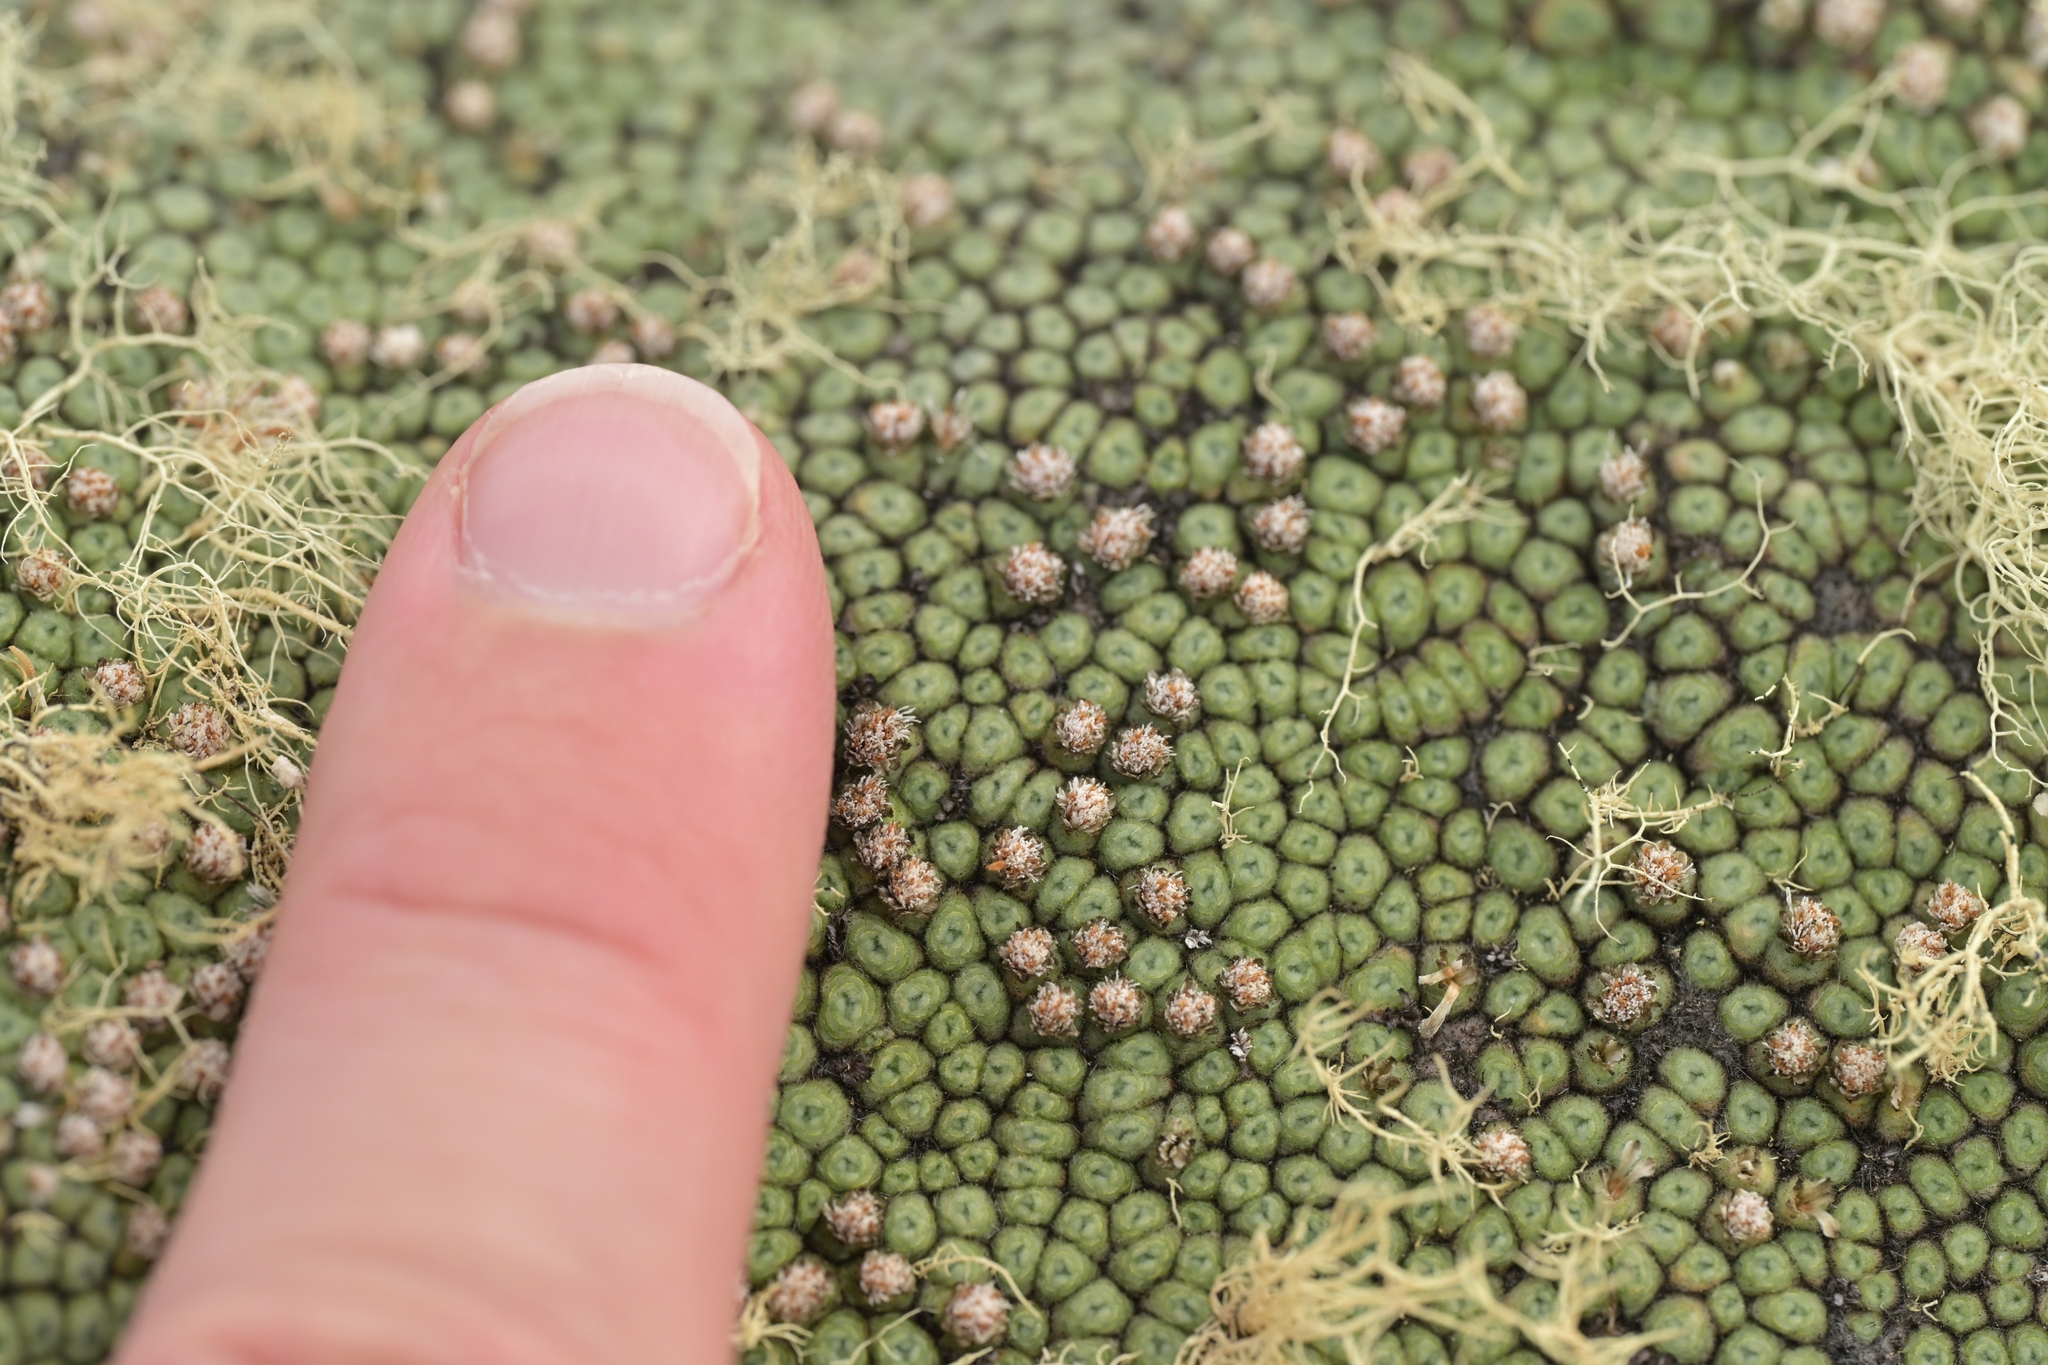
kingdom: Plantae
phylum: Tracheophyta
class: Magnoliopsida
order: Asterales
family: Asteraceae
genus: Raoulia
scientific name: Raoulia rubra
